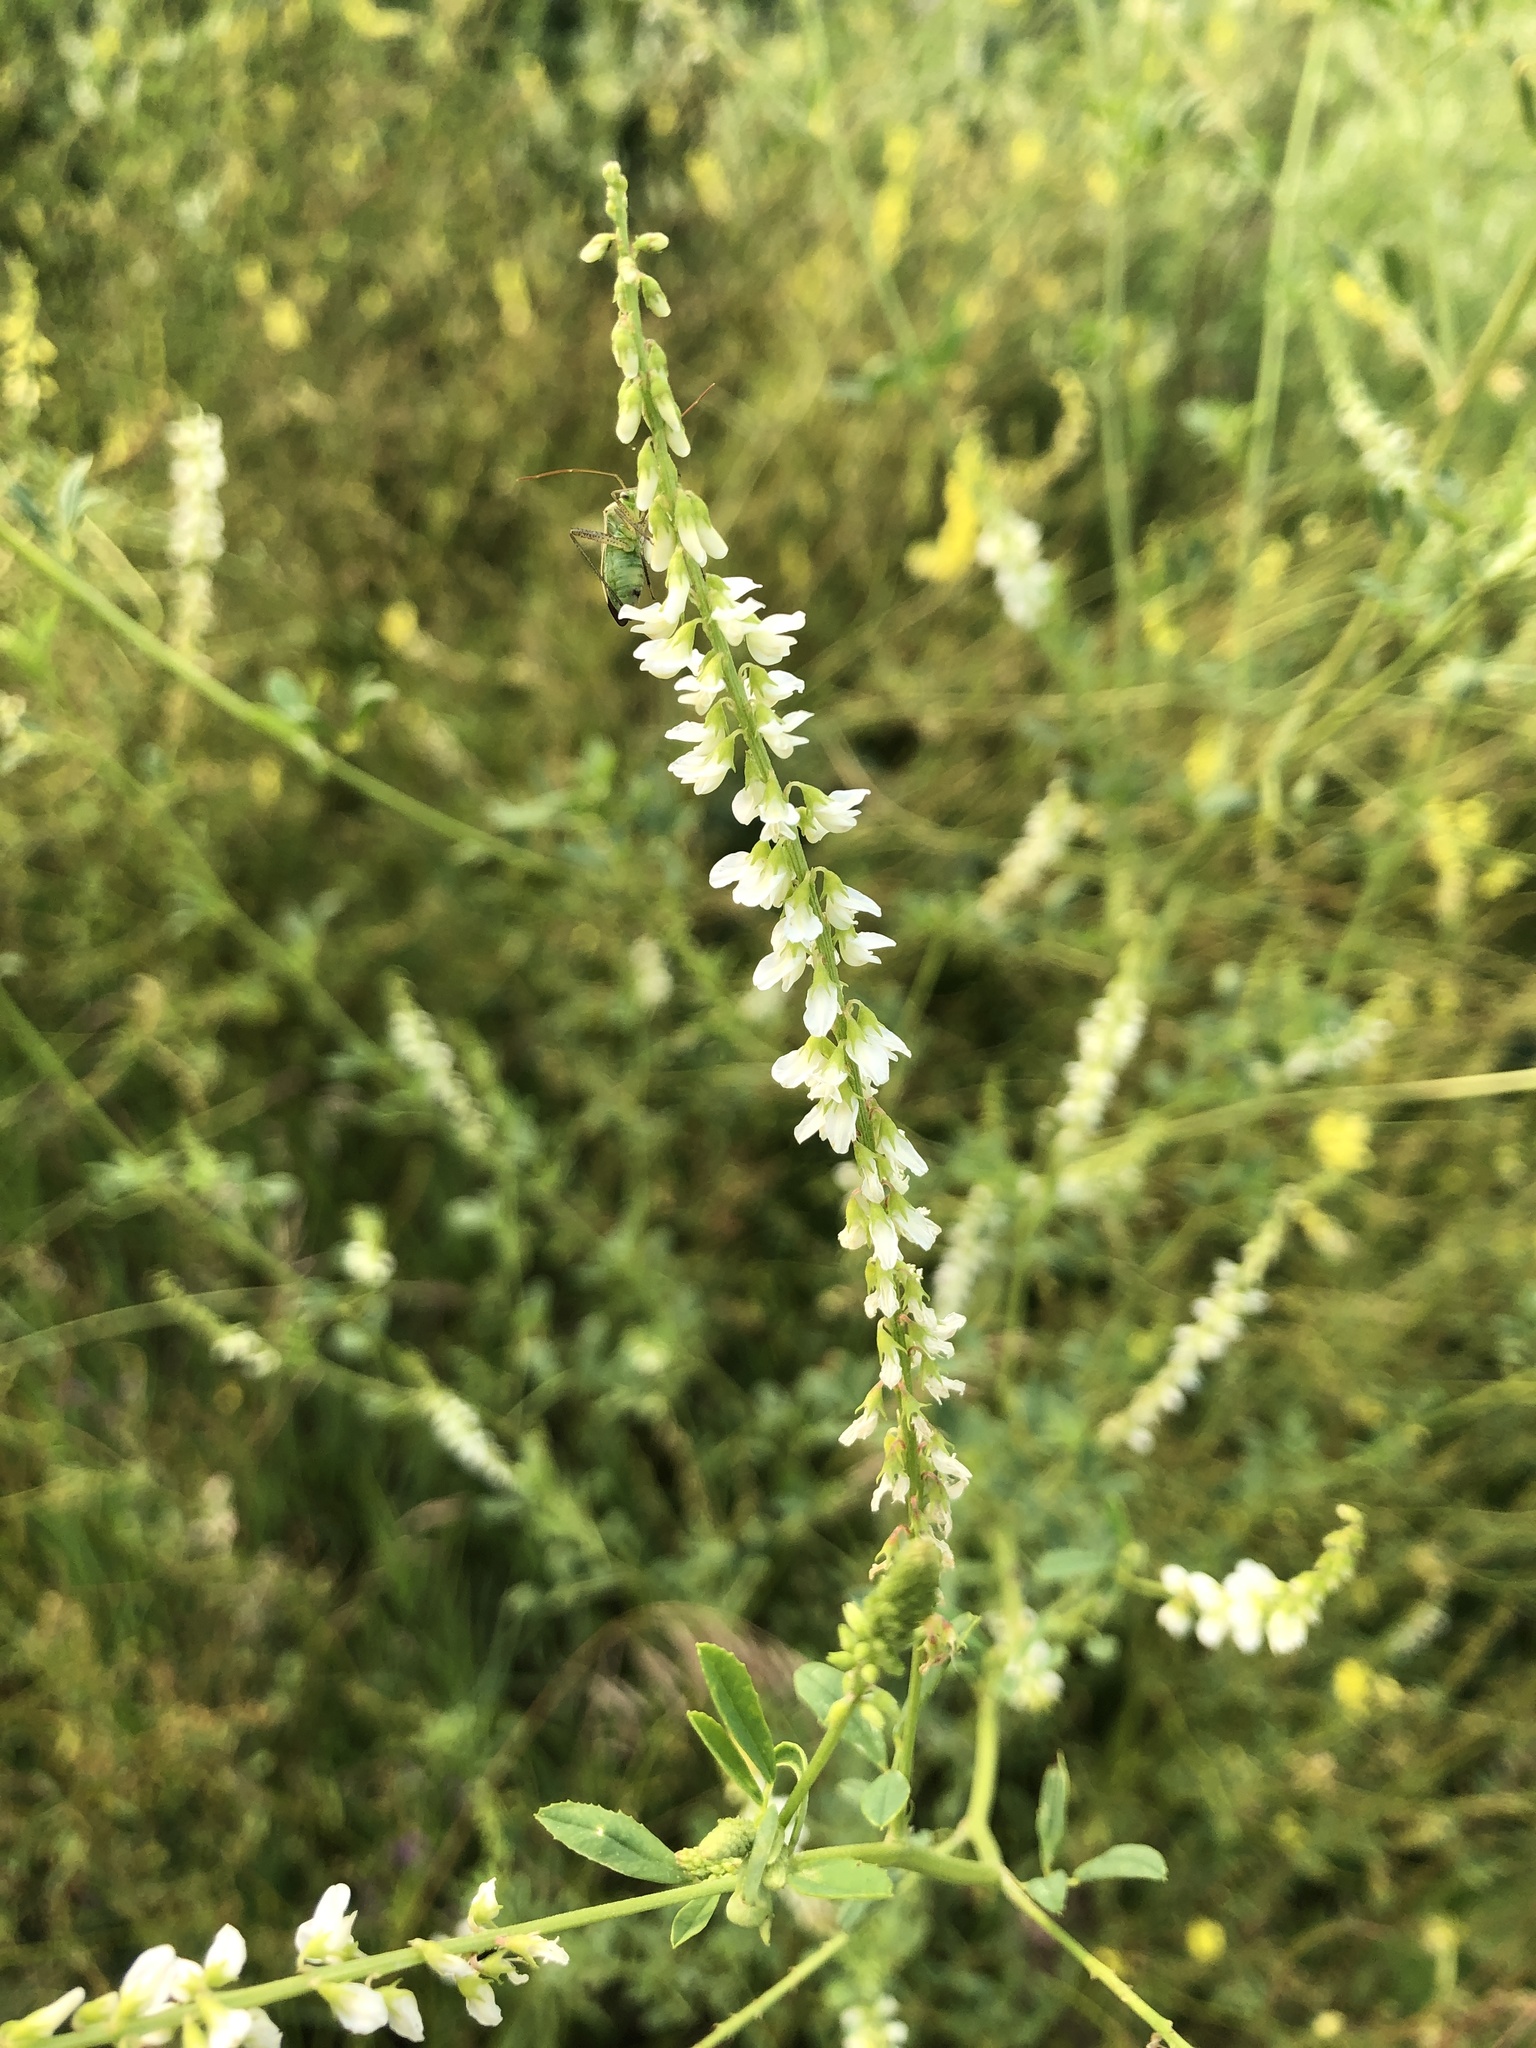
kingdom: Plantae
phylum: Tracheophyta
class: Magnoliopsida
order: Fabales
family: Fabaceae
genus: Melilotus
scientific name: Melilotus albus
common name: White melilot
